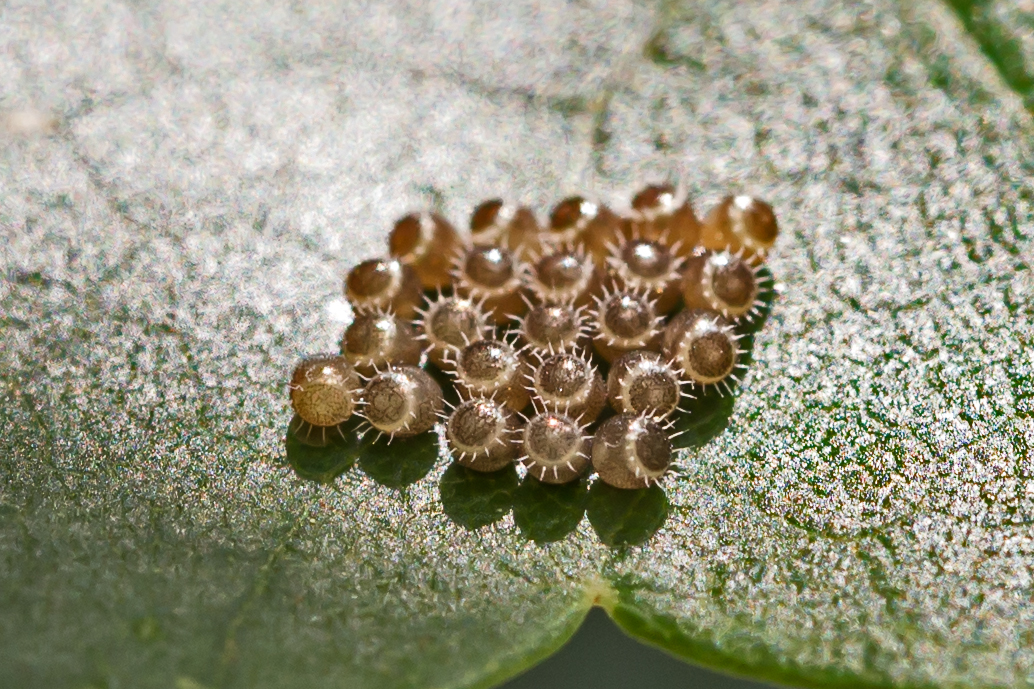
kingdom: Animalia
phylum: Arthropoda
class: Insecta
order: Hemiptera
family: Pentatomidae
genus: Podisus
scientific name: Podisus
